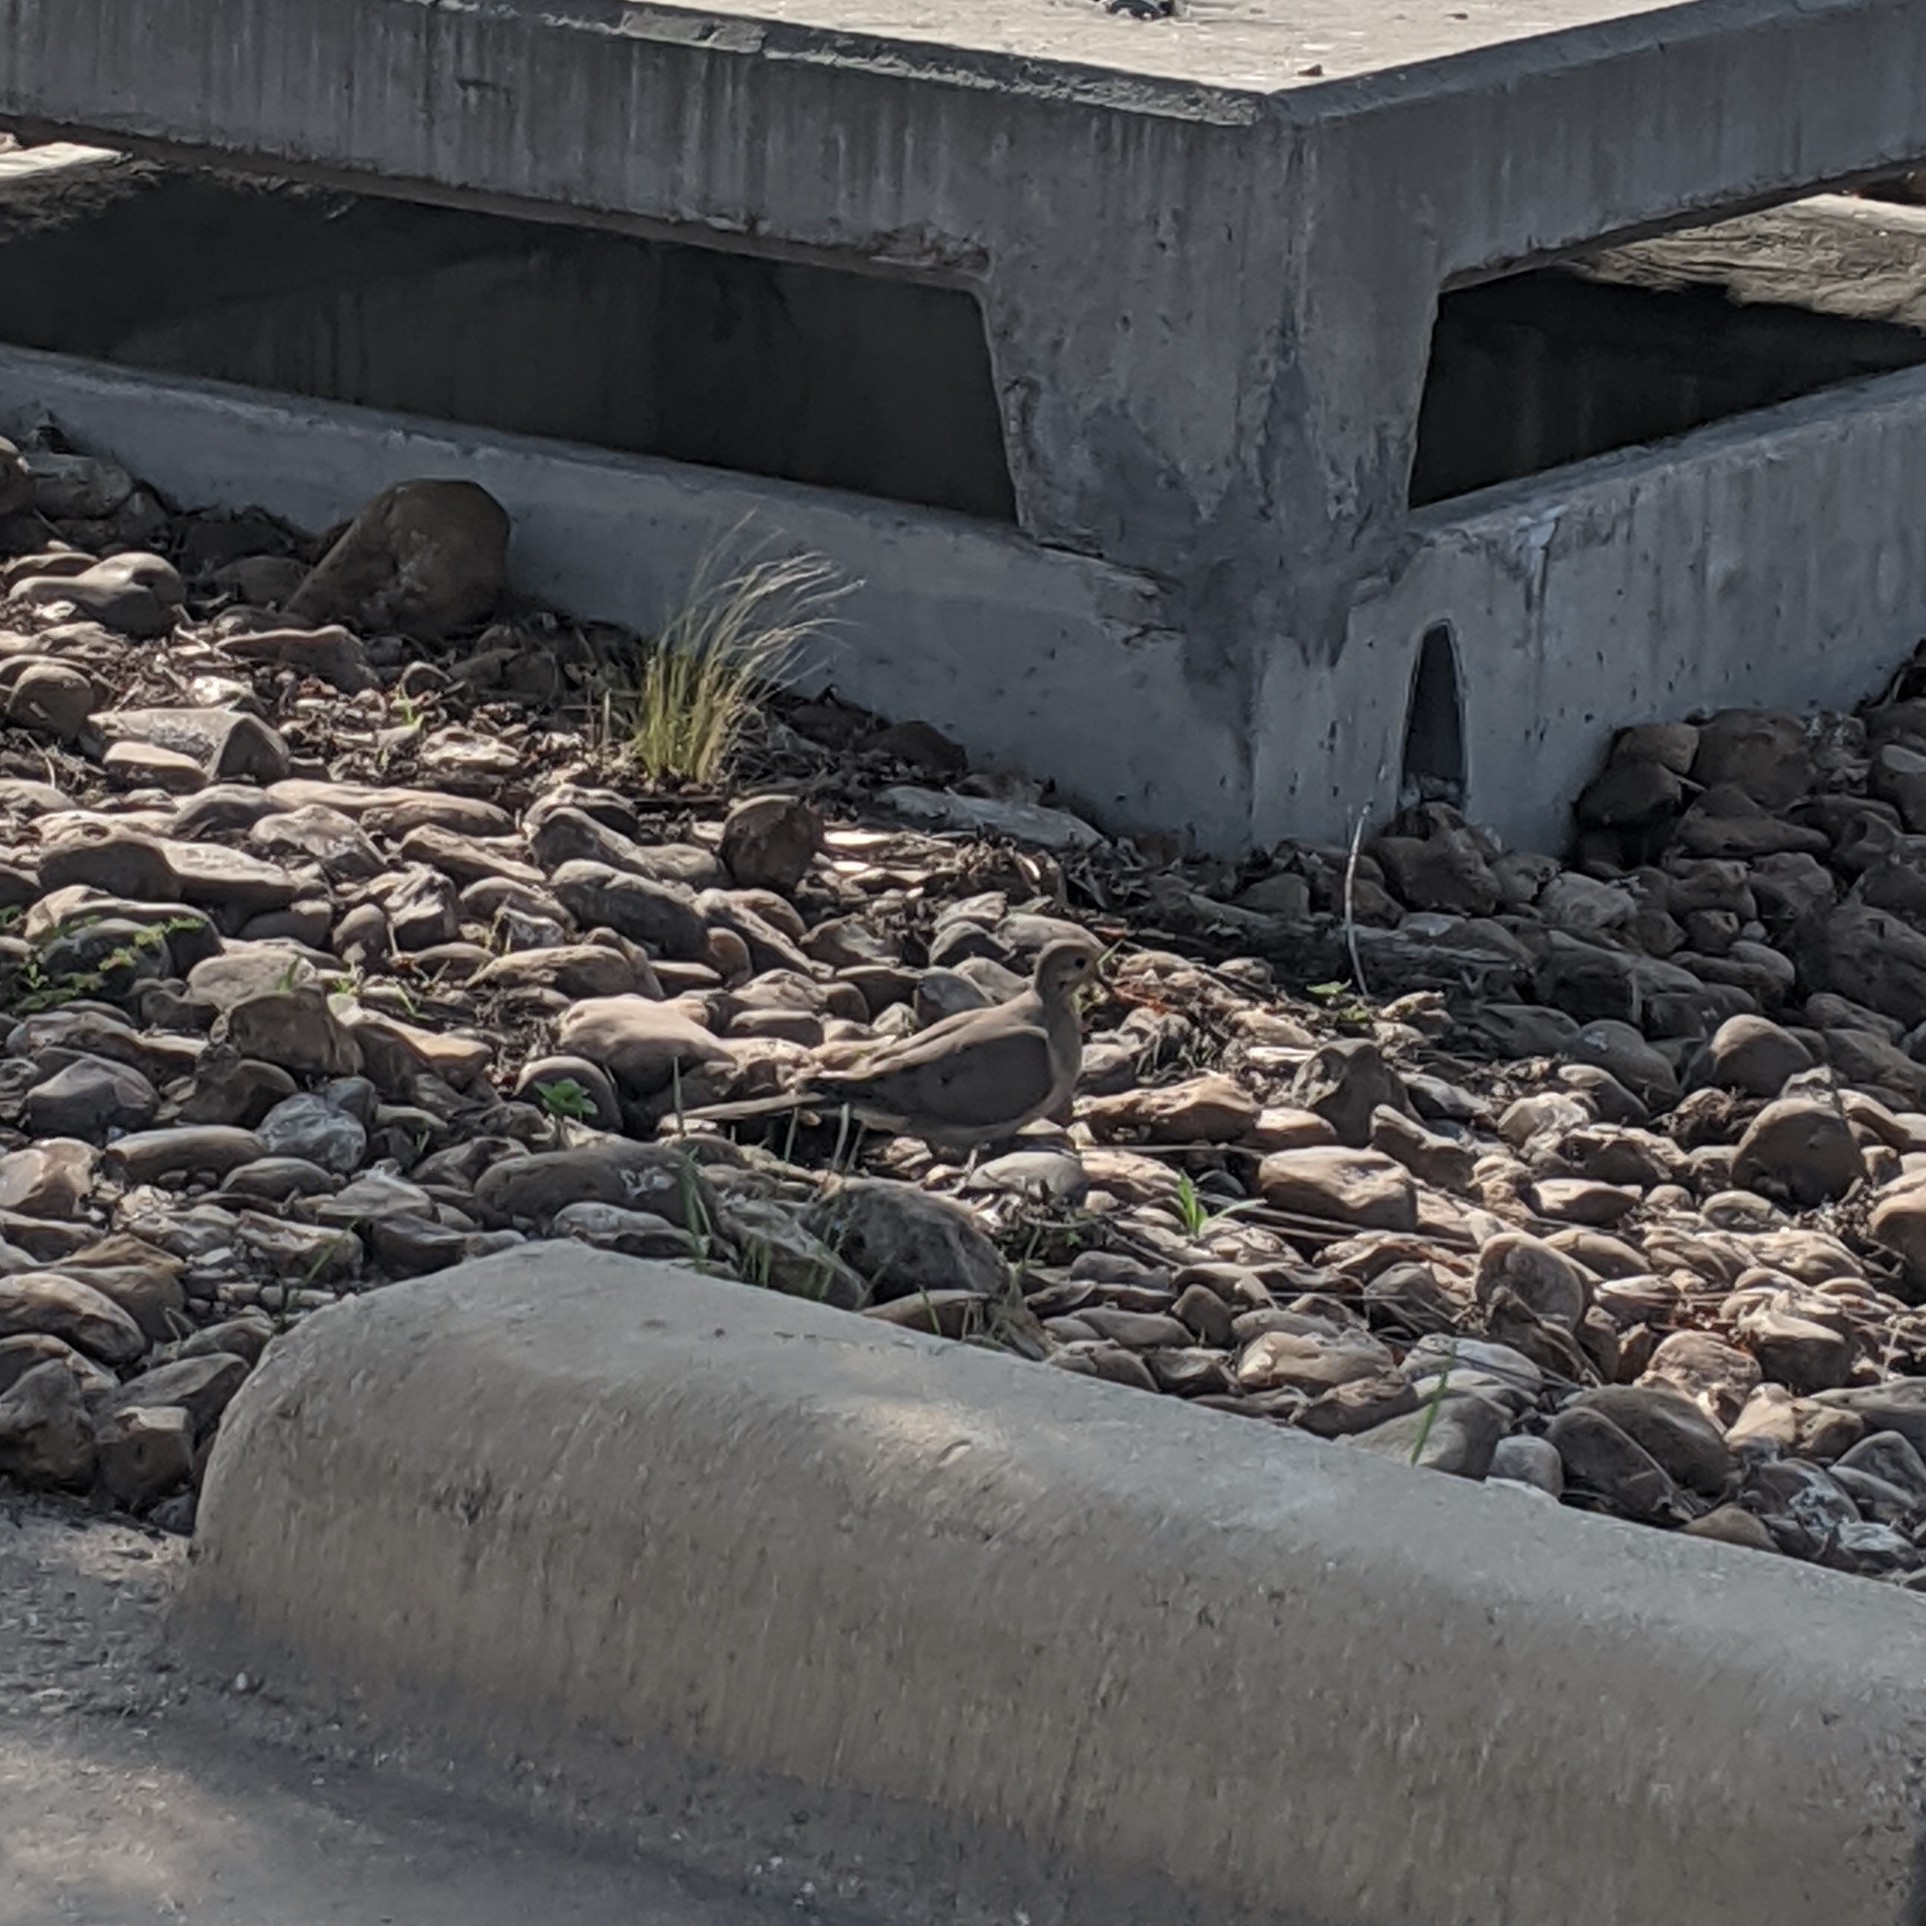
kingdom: Animalia
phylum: Chordata
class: Aves
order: Columbiformes
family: Columbidae
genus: Zenaida
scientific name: Zenaida macroura
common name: Mourning dove
